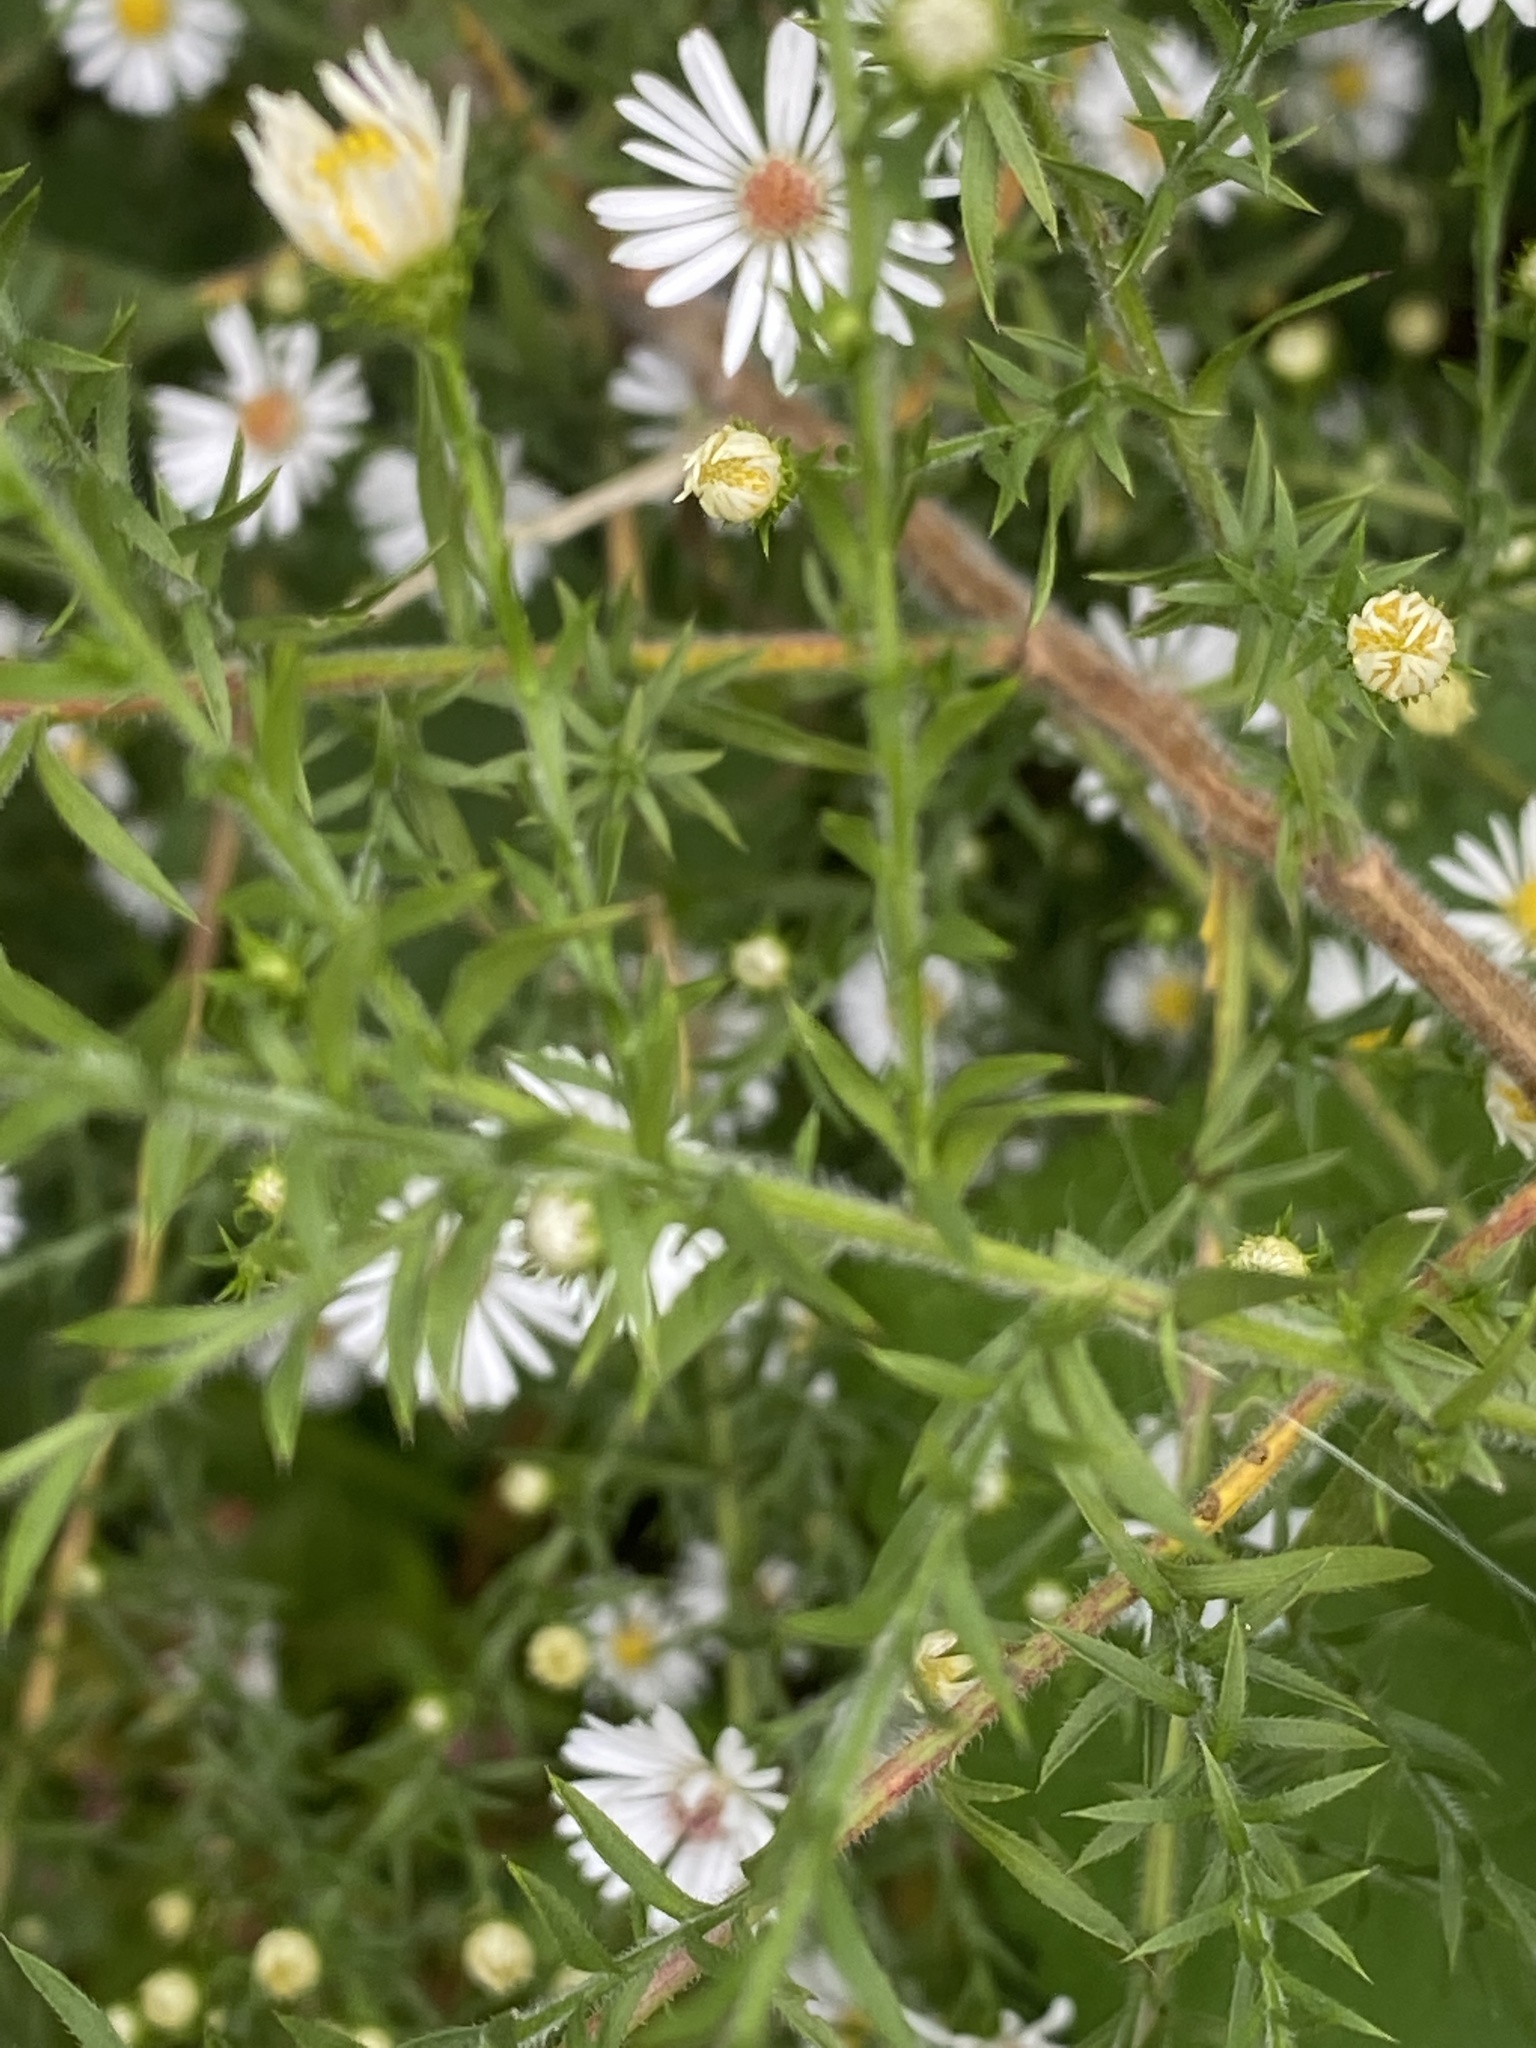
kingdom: Plantae
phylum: Tracheophyta
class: Magnoliopsida
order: Asterales
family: Asteraceae
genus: Symphyotrichum
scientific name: Symphyotrichum pilosum
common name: Awl aster
